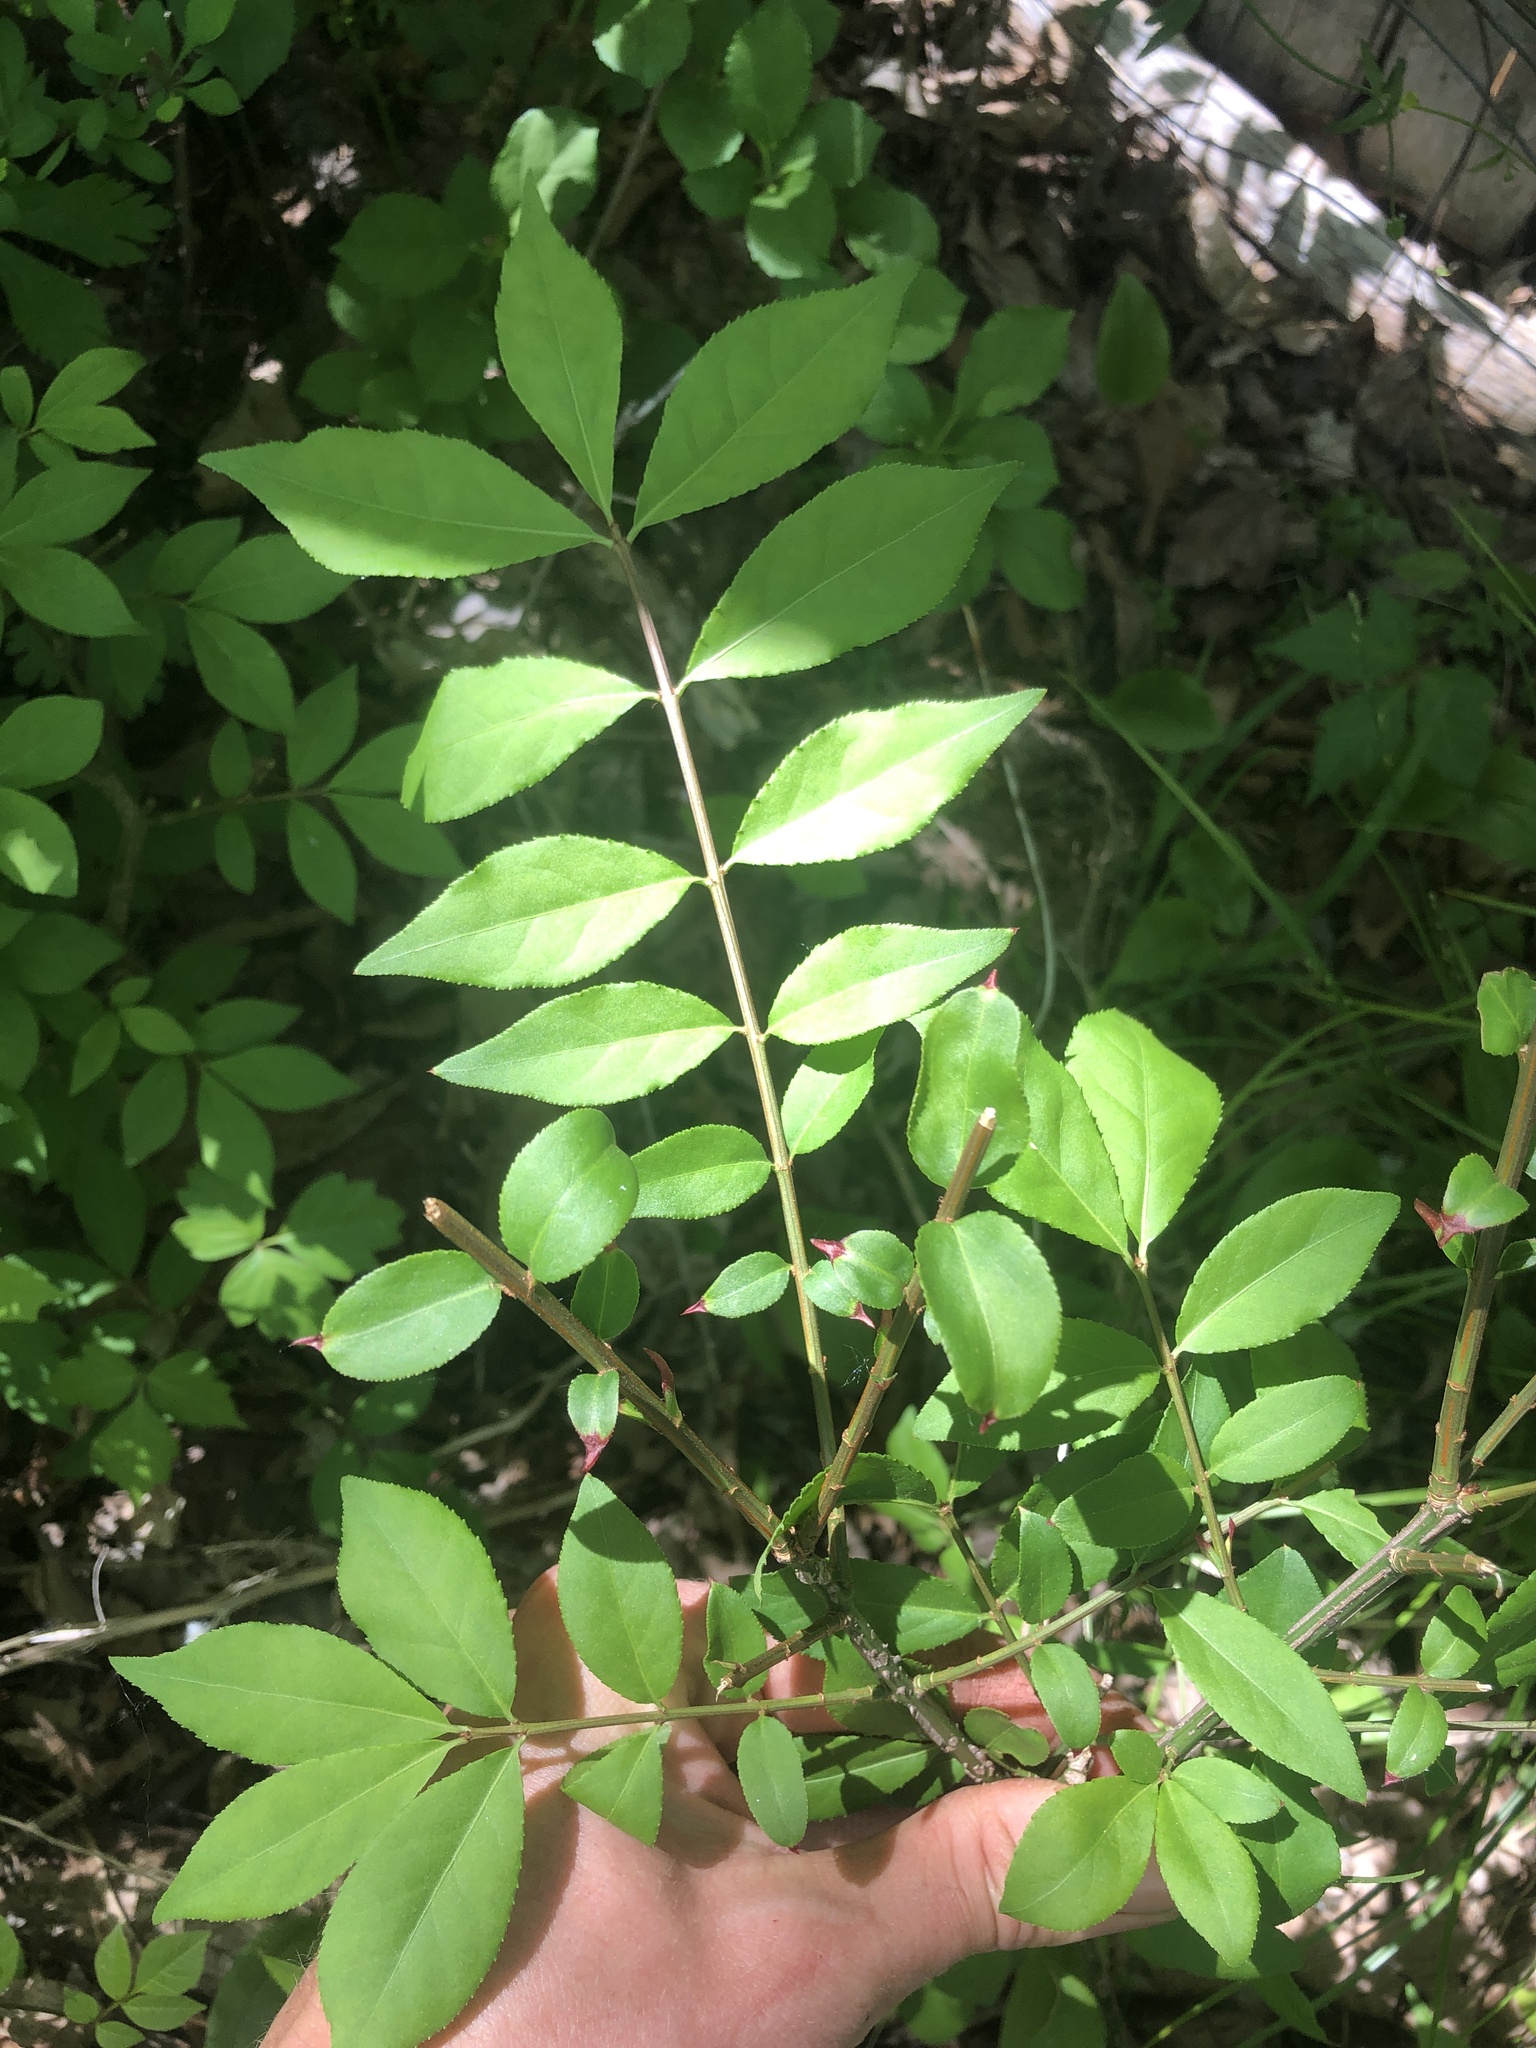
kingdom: Plantae
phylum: Tracheophyta
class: Magnoliopsida
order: Celastrales
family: Celastraceae
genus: Euonymus
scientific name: Euonymus alatus
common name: Winged euonymus
